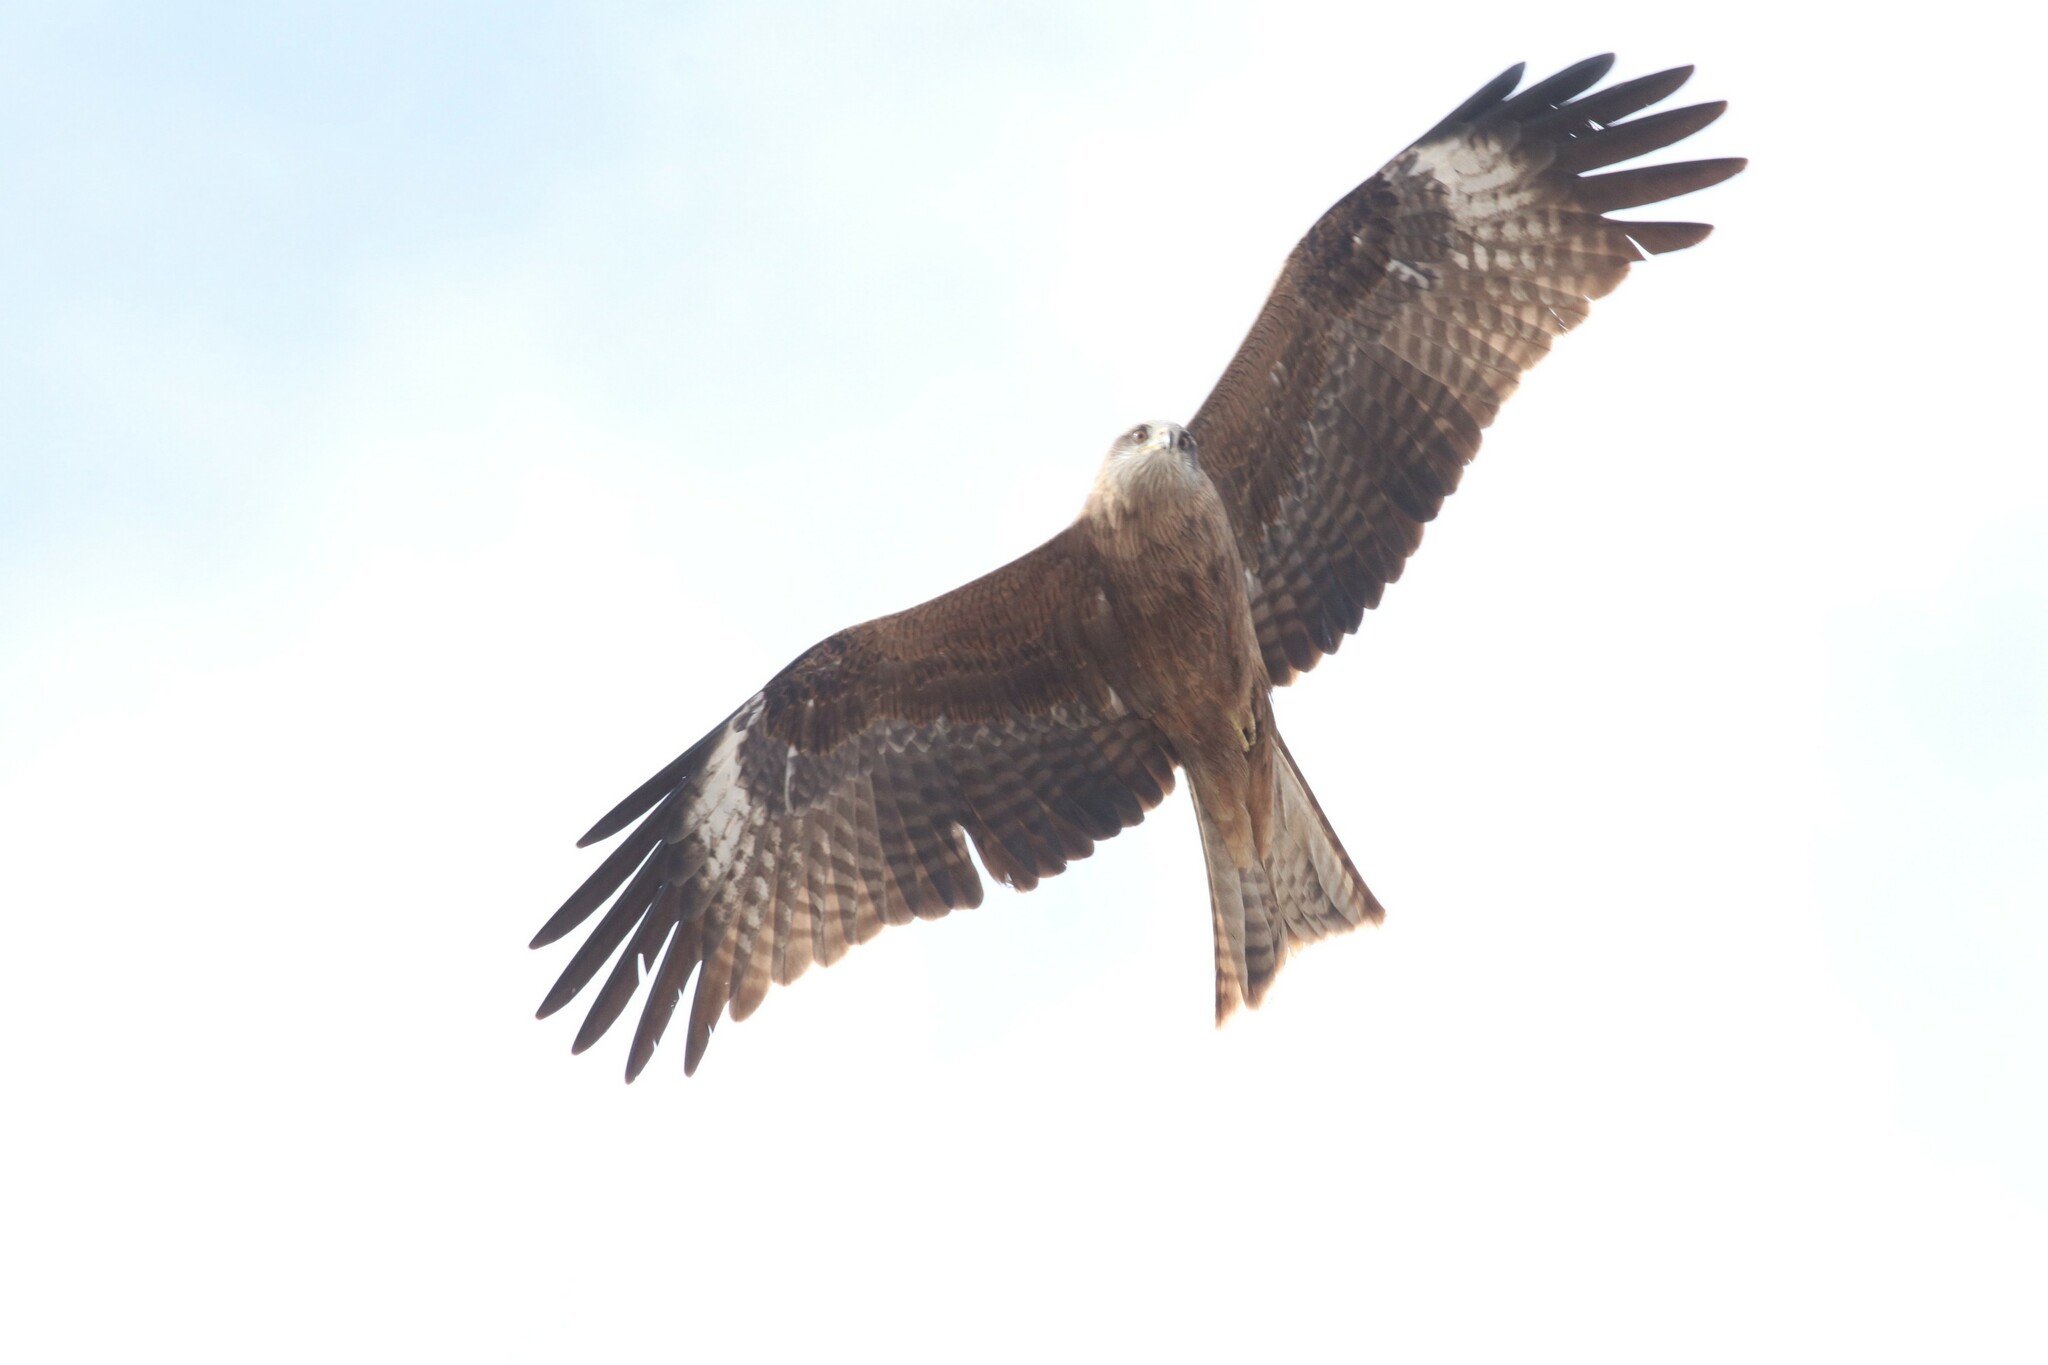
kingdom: Animalia
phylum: Chordata
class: Aves
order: Accipitriformes
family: Accipitridae
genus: Milvus
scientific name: Milvus migrans
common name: Black kite
